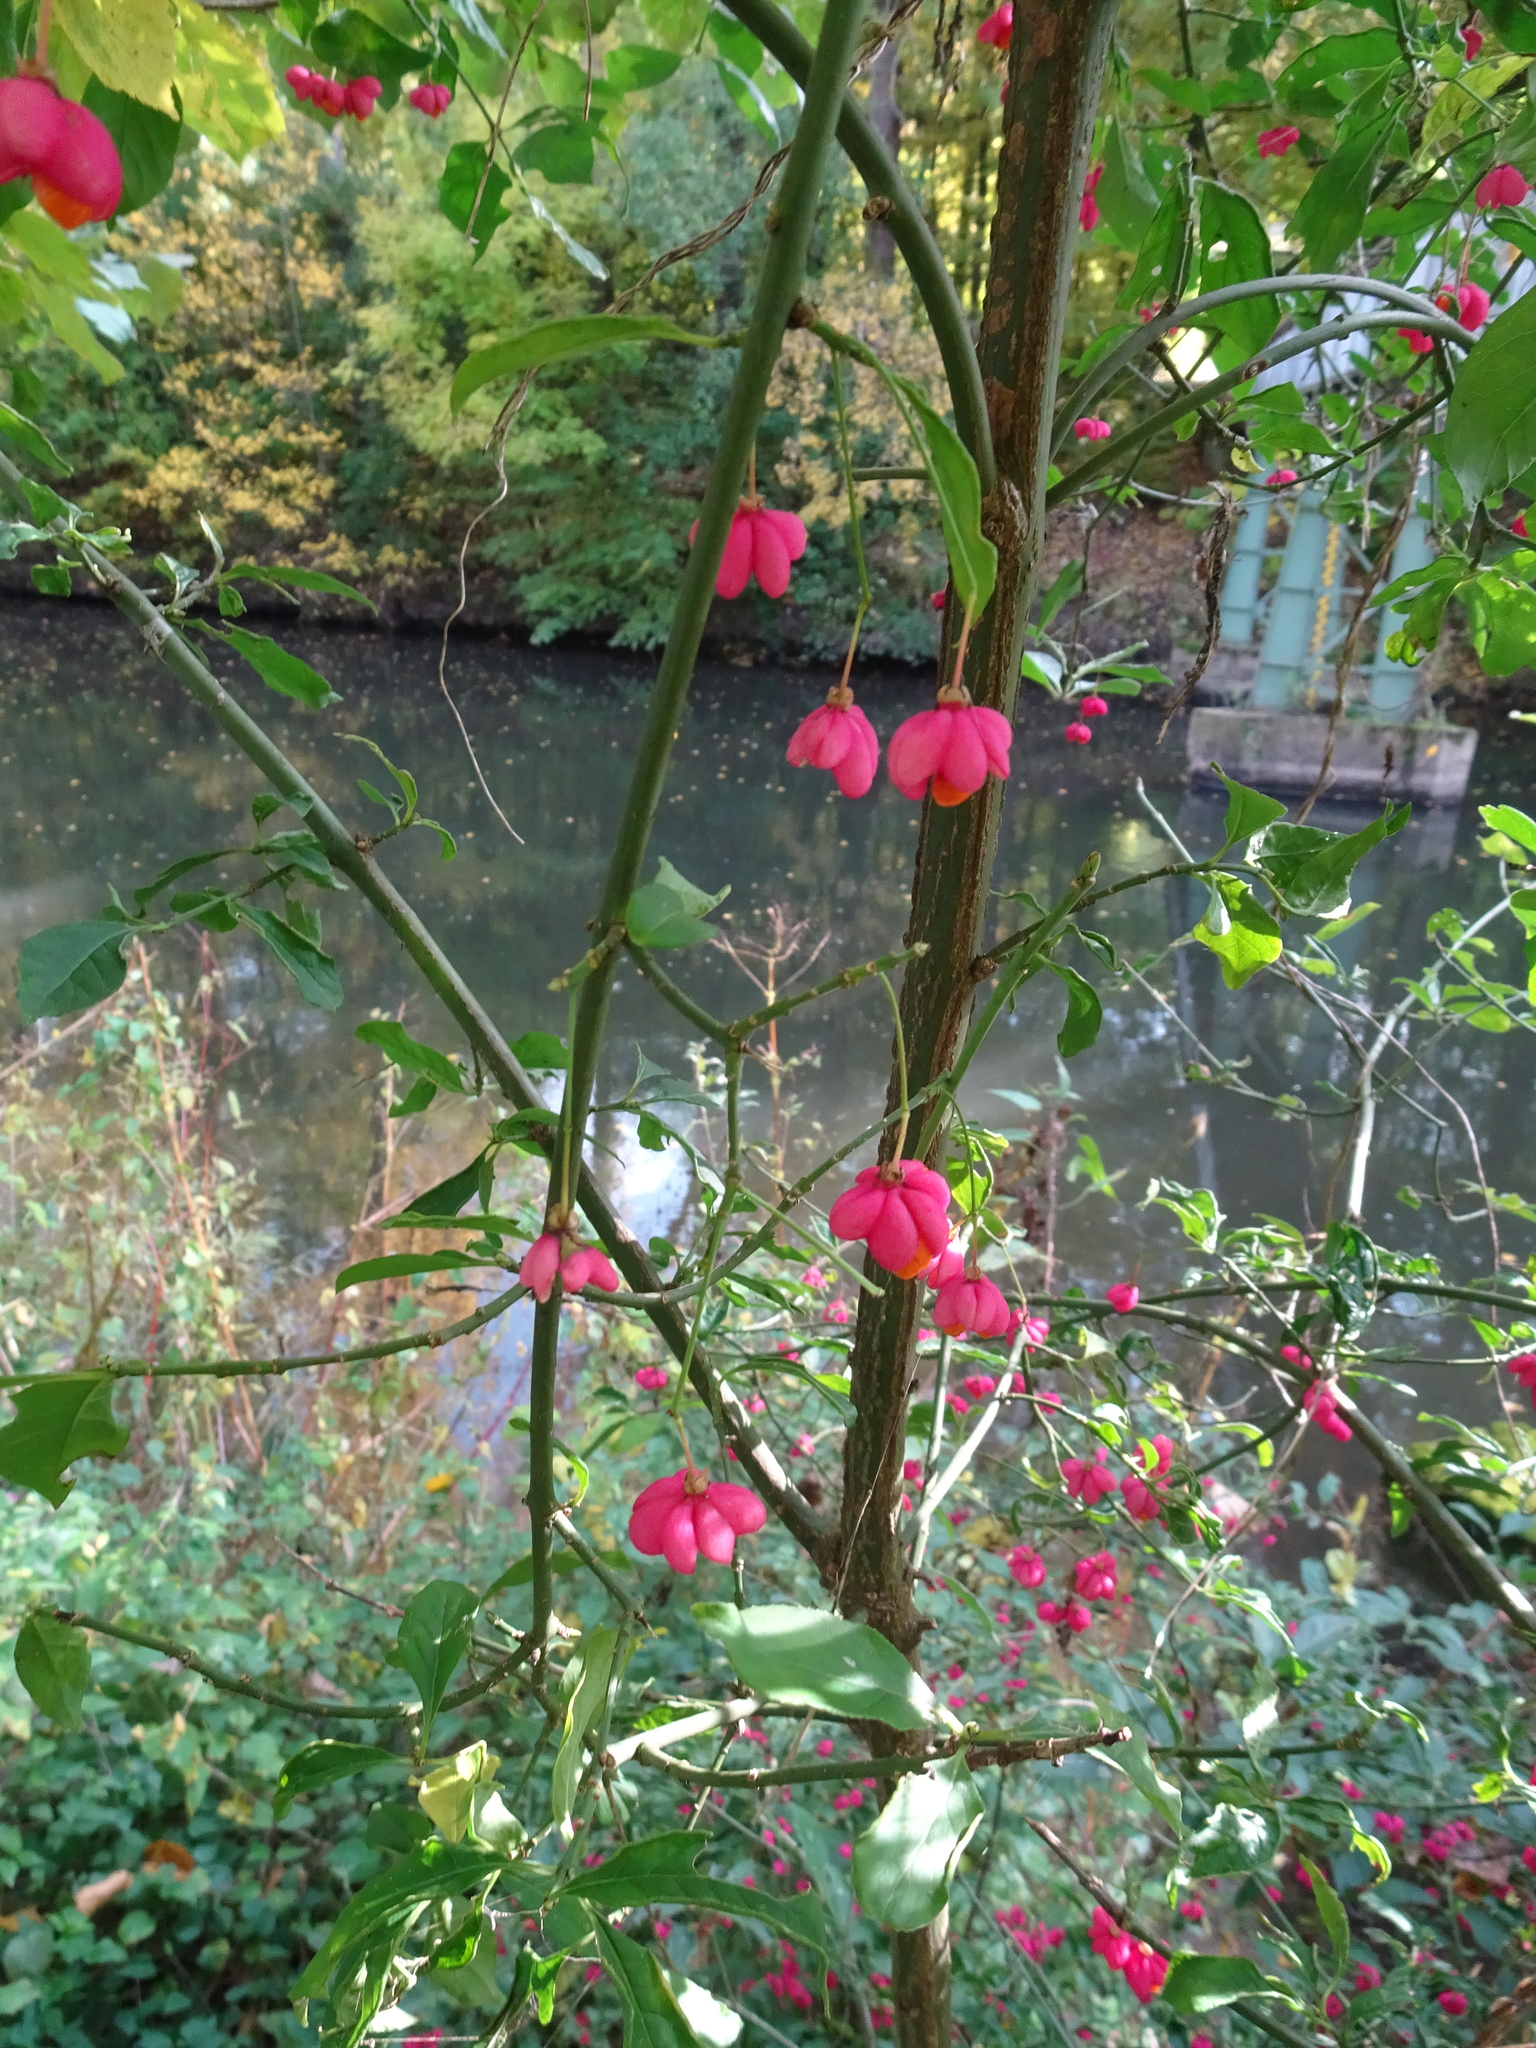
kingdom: Plantae
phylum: Tracheophyta
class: Magnoliopsida
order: Celastrales
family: Celastraceae
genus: Euonymus
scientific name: Euonymus europaeus
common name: Spindle
